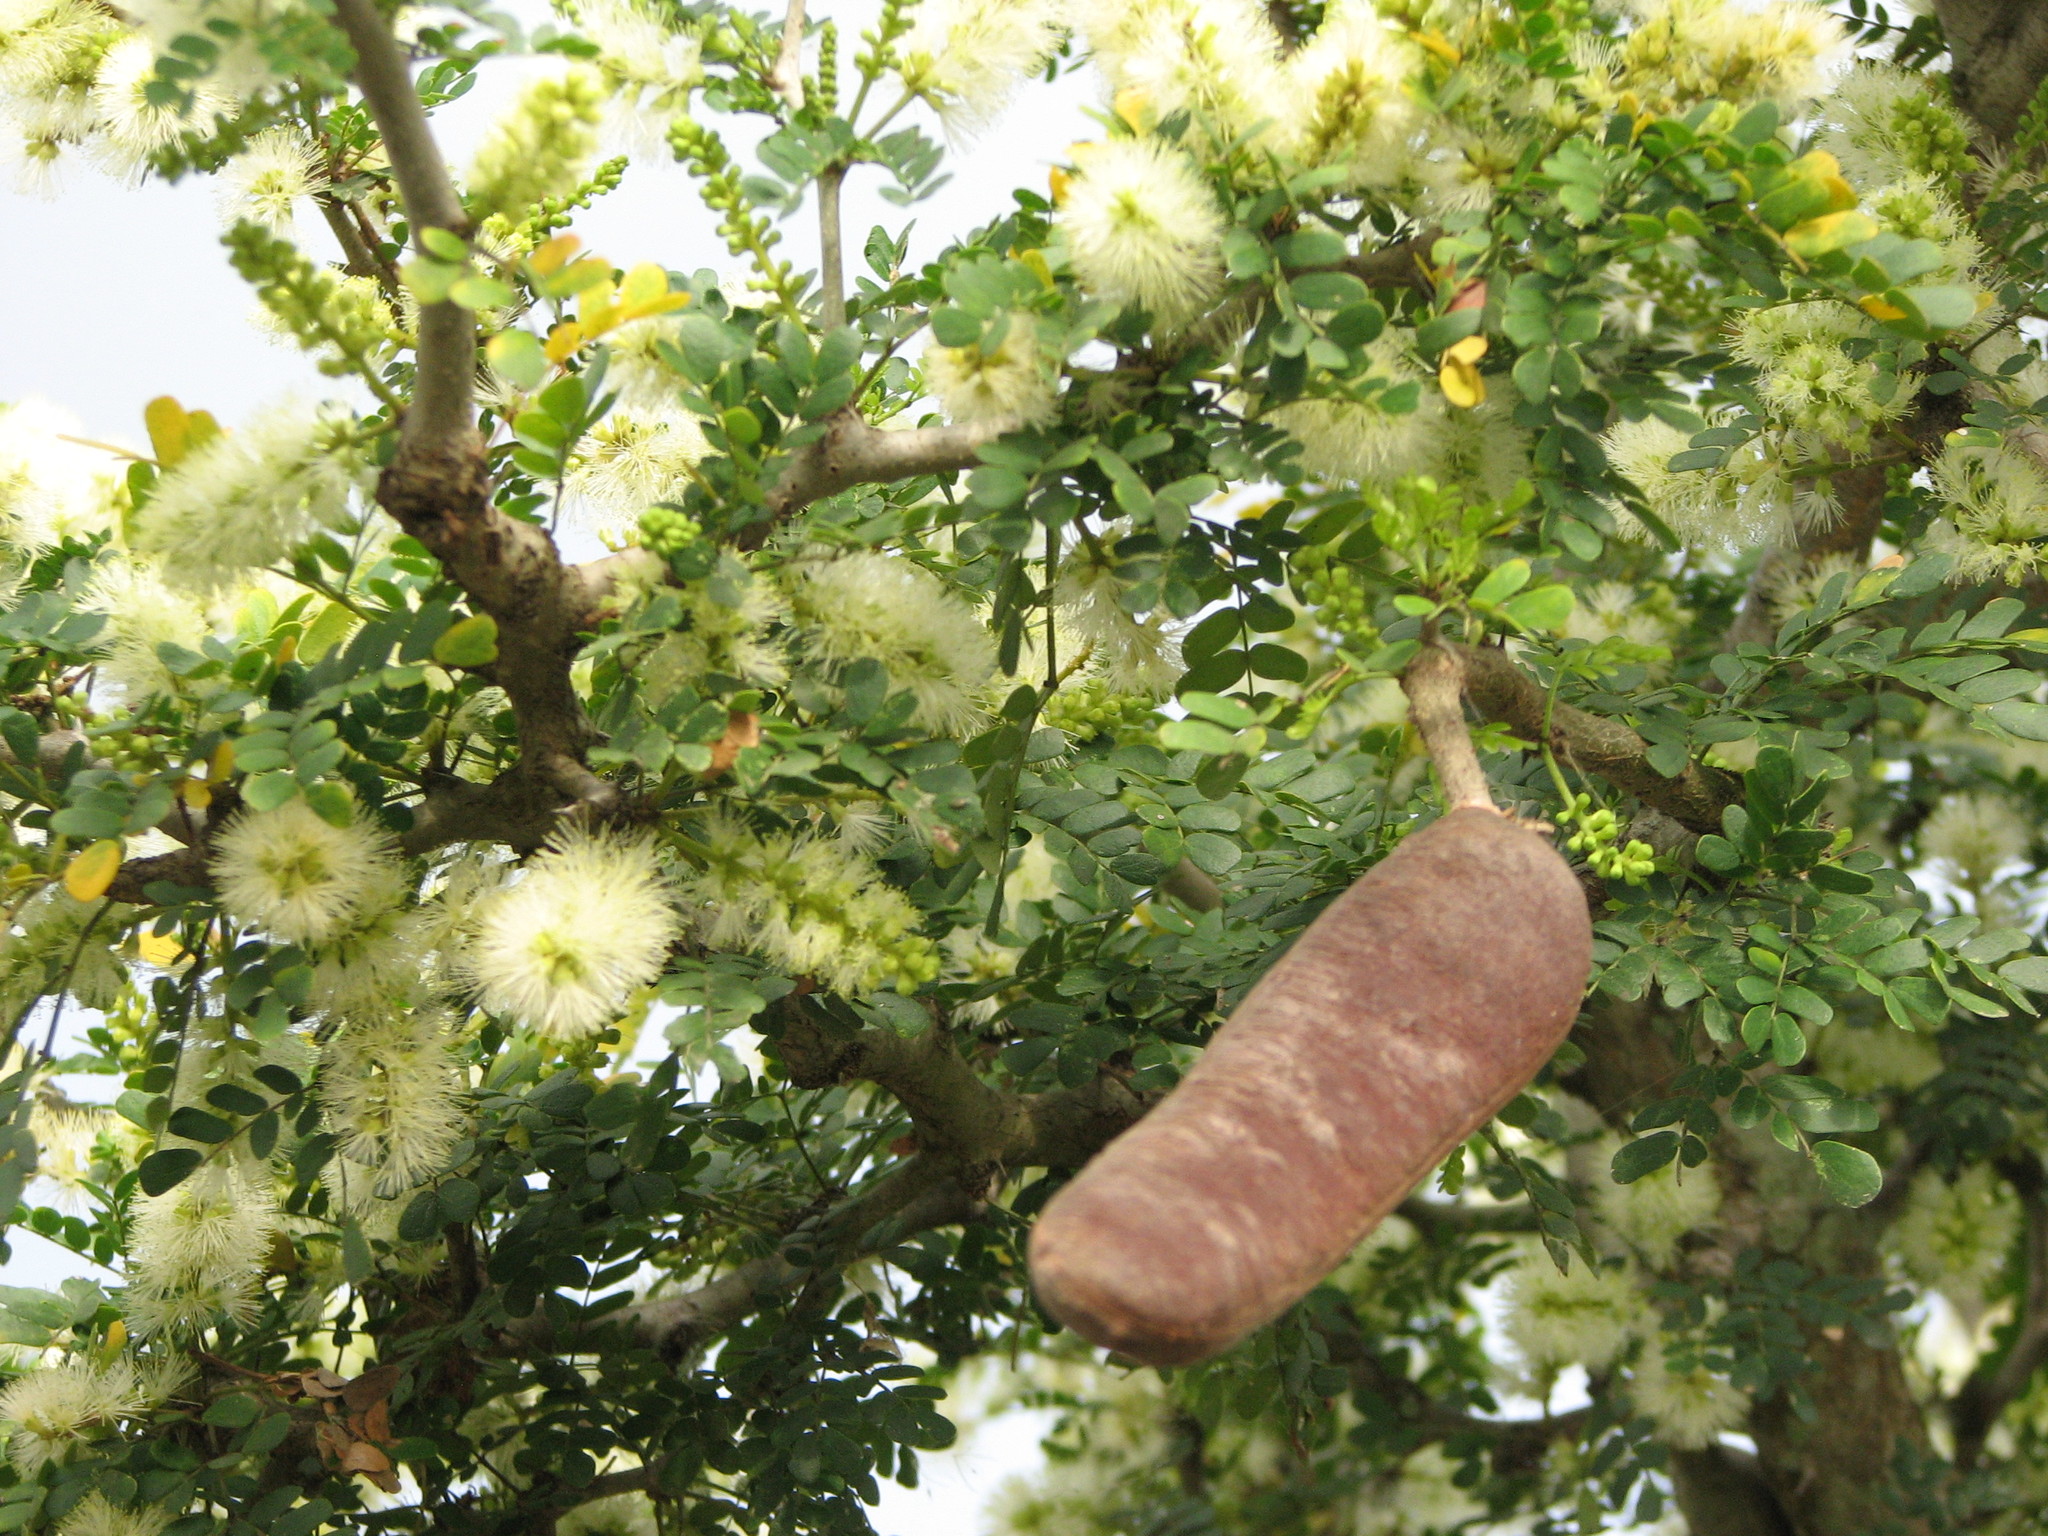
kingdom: Plantae
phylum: Tracheophyta
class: Magnoliopsida
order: Fabales
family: Fabaceae
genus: Ebenopsis
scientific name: Ebenopsis ebano
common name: Ebony blackbead
